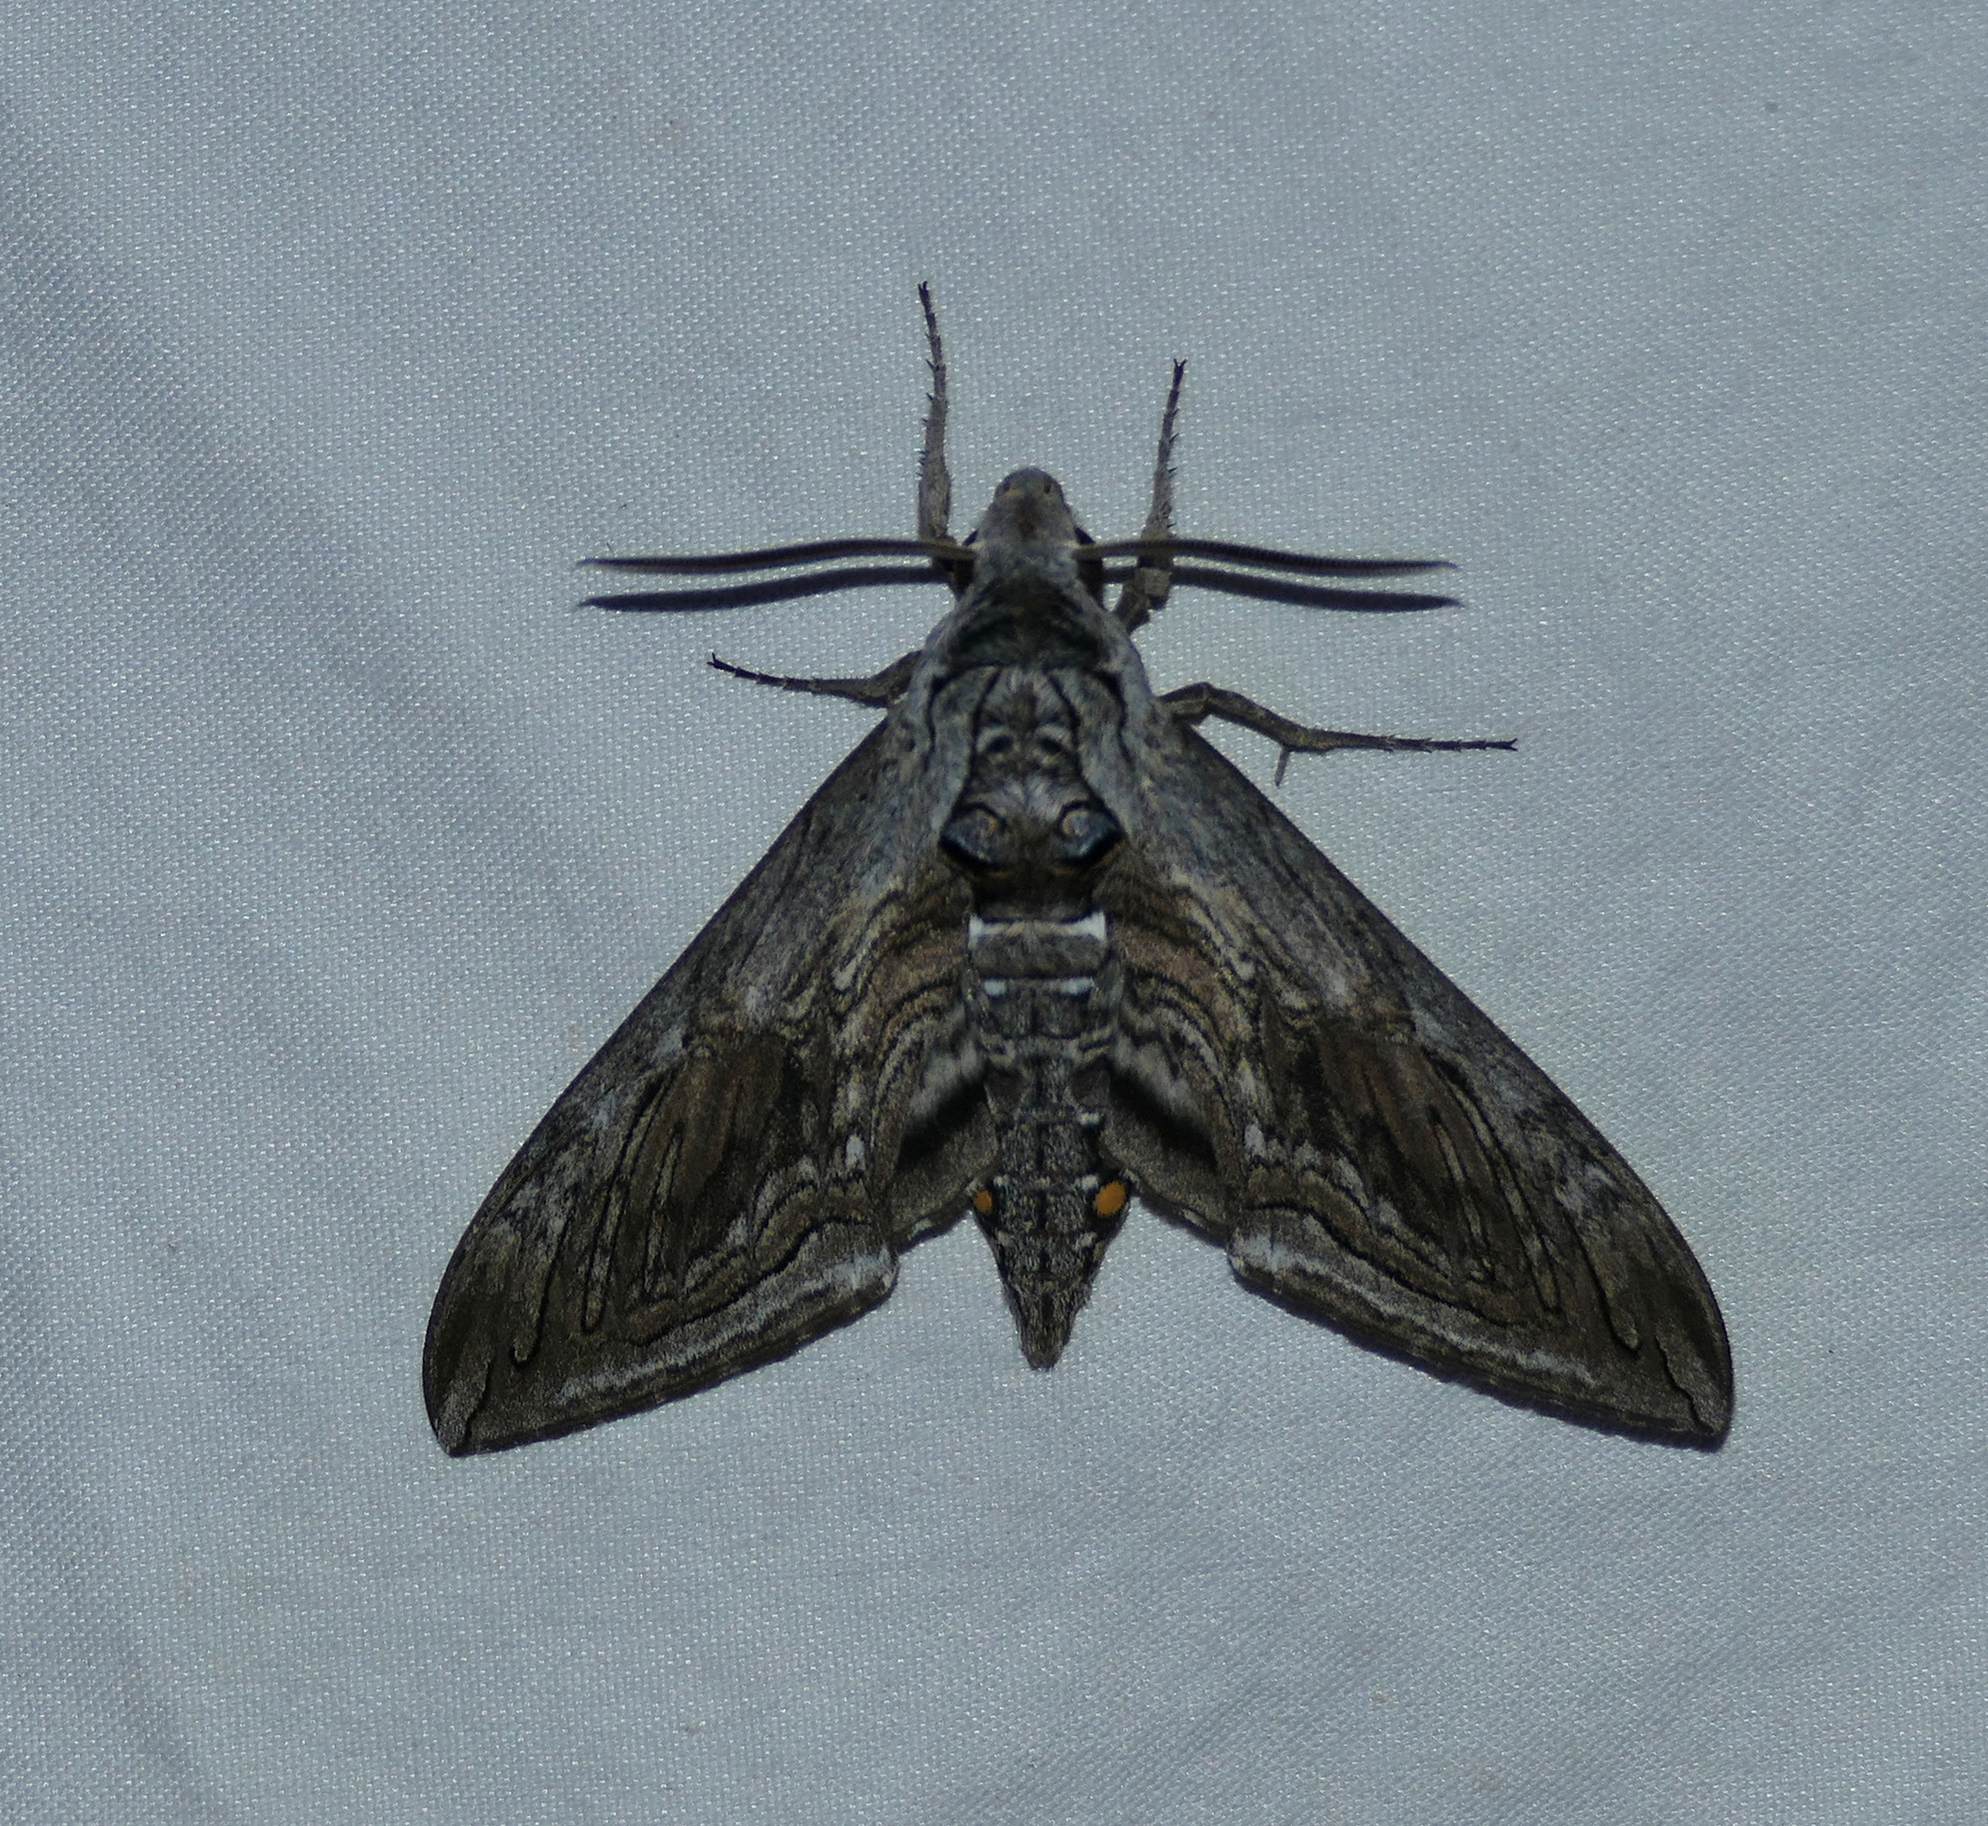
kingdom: Animalia
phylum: Arthropoda
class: Insecta
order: Lepidoptera
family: Sphingidae
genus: Manduca
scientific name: Manduca quinquemaculatus
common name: Five-spotted hawk-moth
